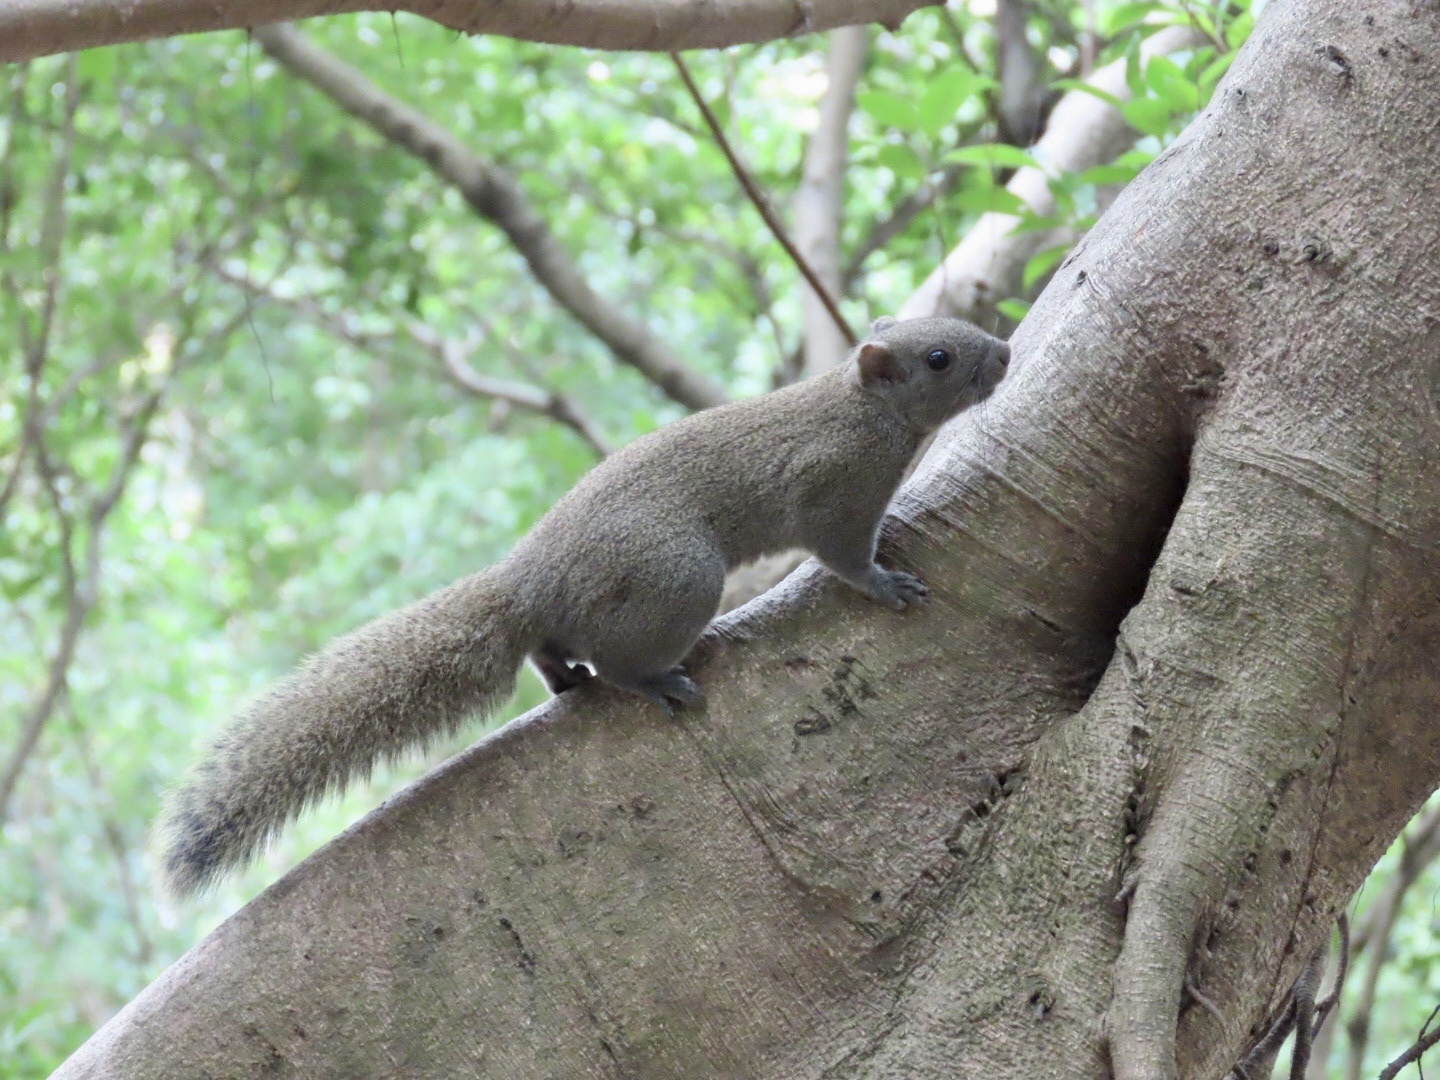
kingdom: Animalia
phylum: Chordata
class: Mammalia
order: Rodentia
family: Sciuridae
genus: Callosciurus
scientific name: Callosciurus erythraeus
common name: Pallas's squirrel
